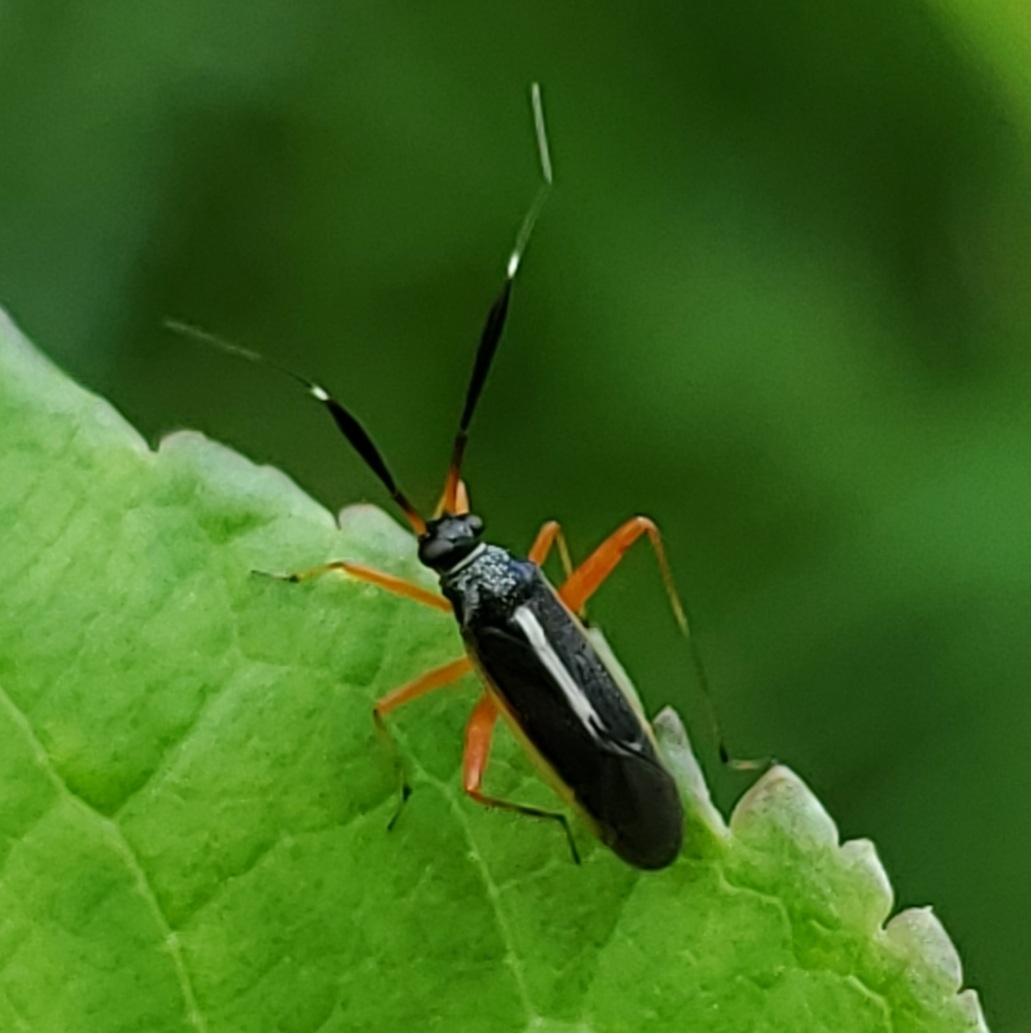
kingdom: Animalia
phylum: Arthropoda
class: Insecta
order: Hemiptera
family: Miridae
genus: Garganus
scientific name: Garganus fusiformis
